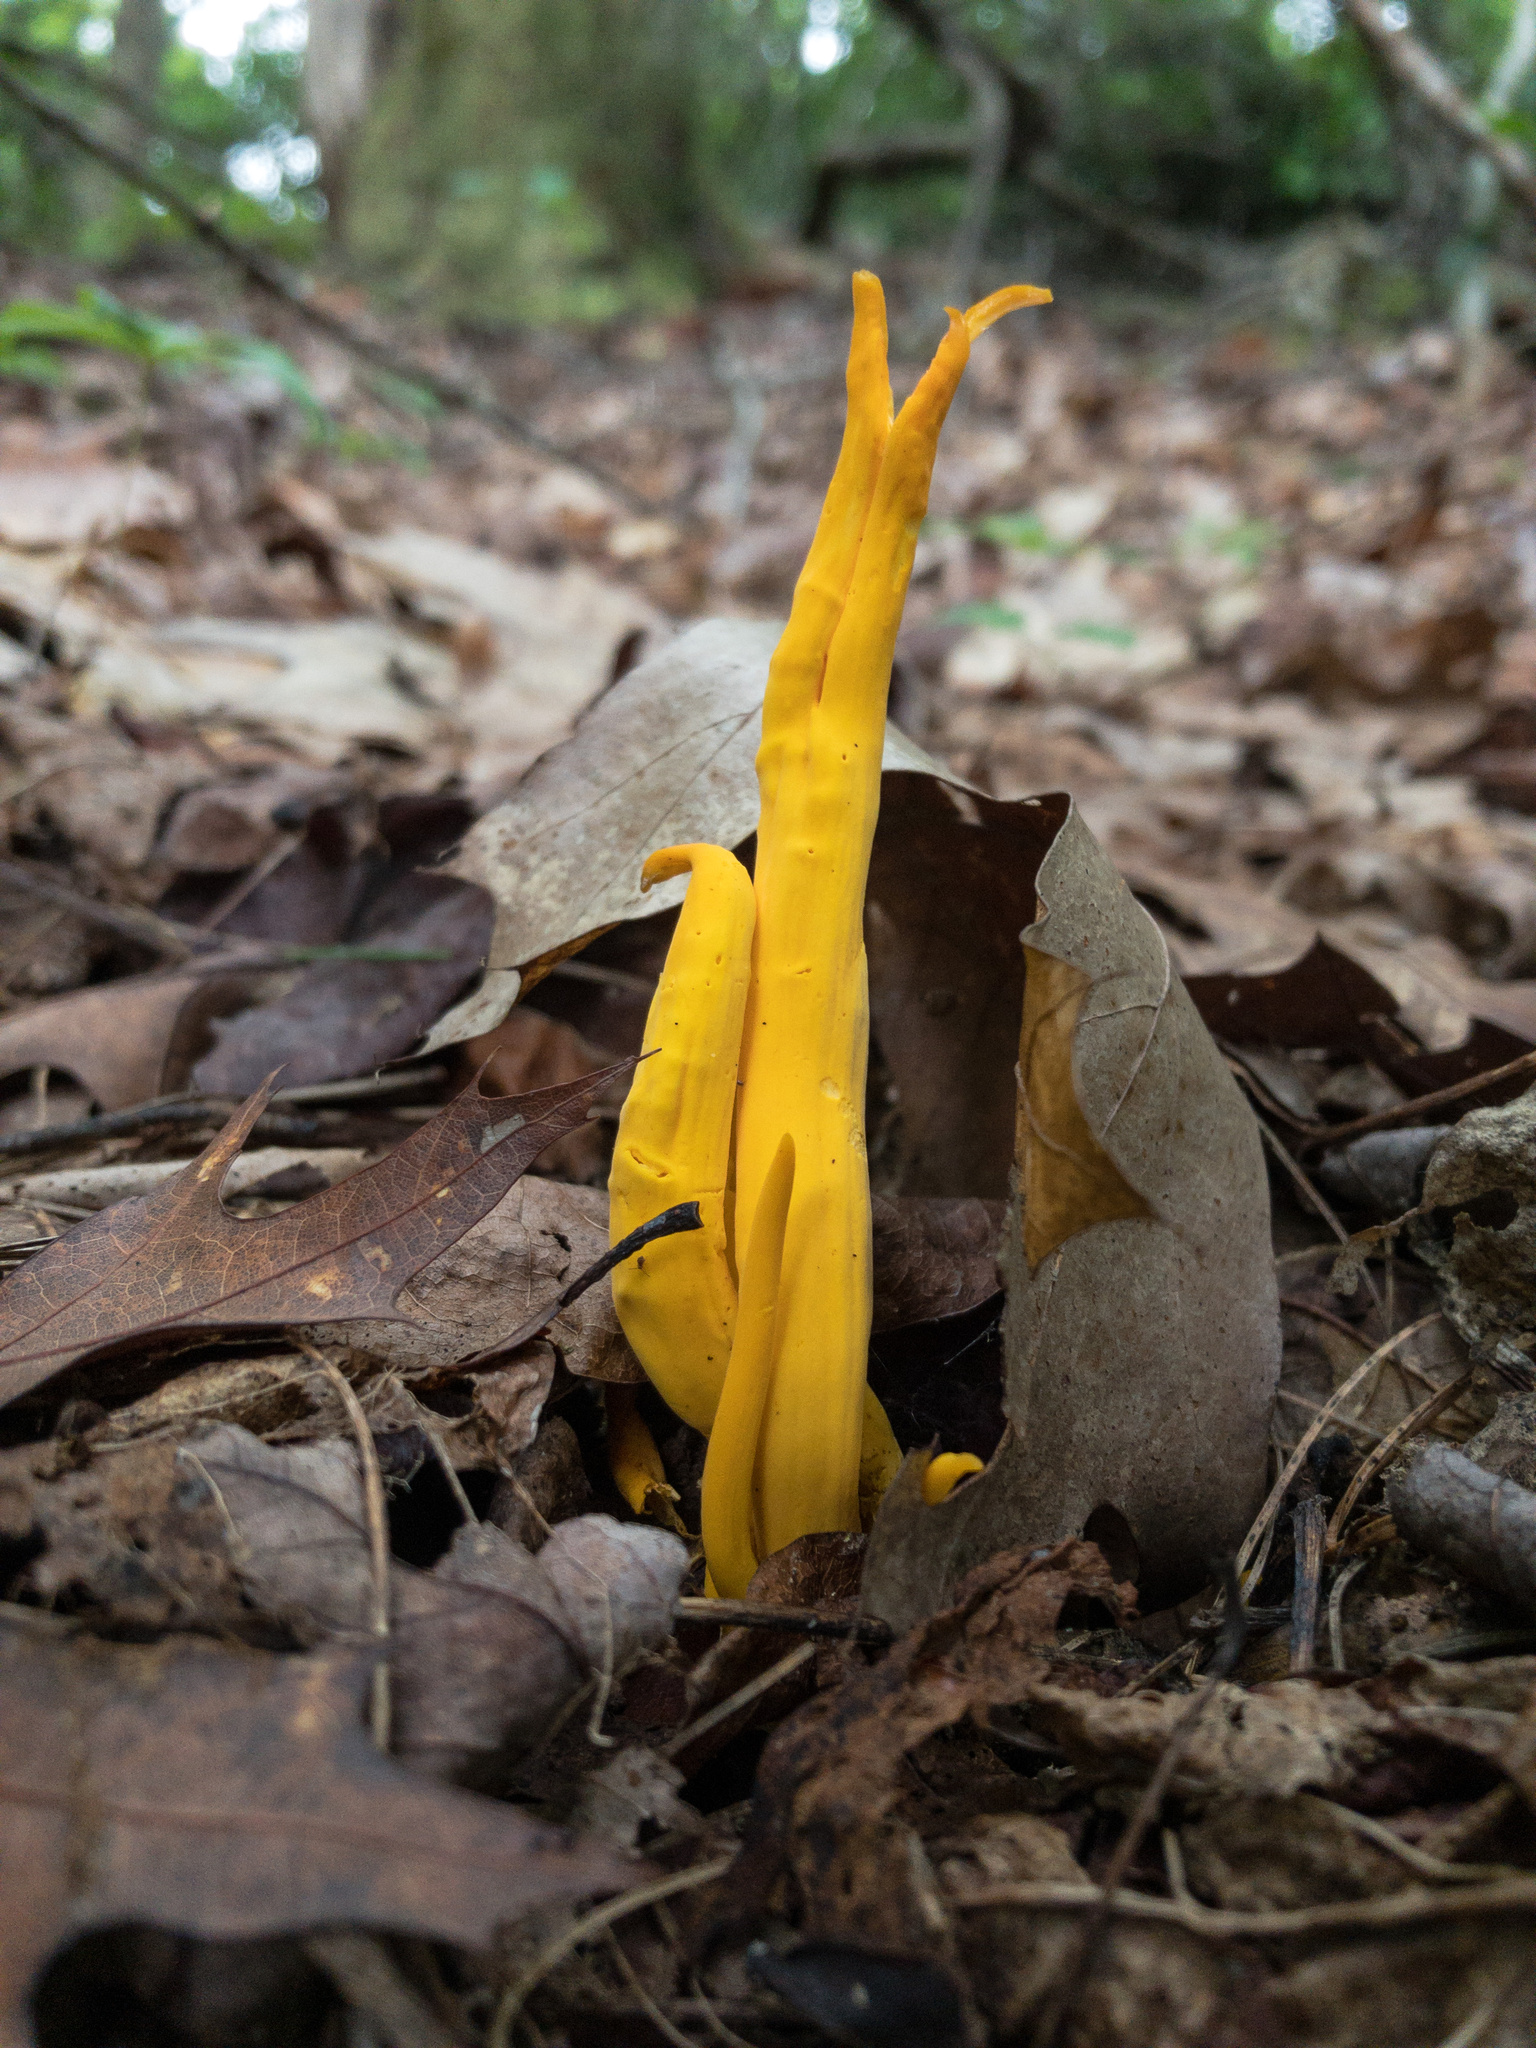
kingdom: Fungi
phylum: Basidiomycota
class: Agaricomycetes
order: Agaricales
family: Clavariaceae
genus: Clavulinopsis
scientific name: Clavulinopsis fusiformis
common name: Golden spindles
